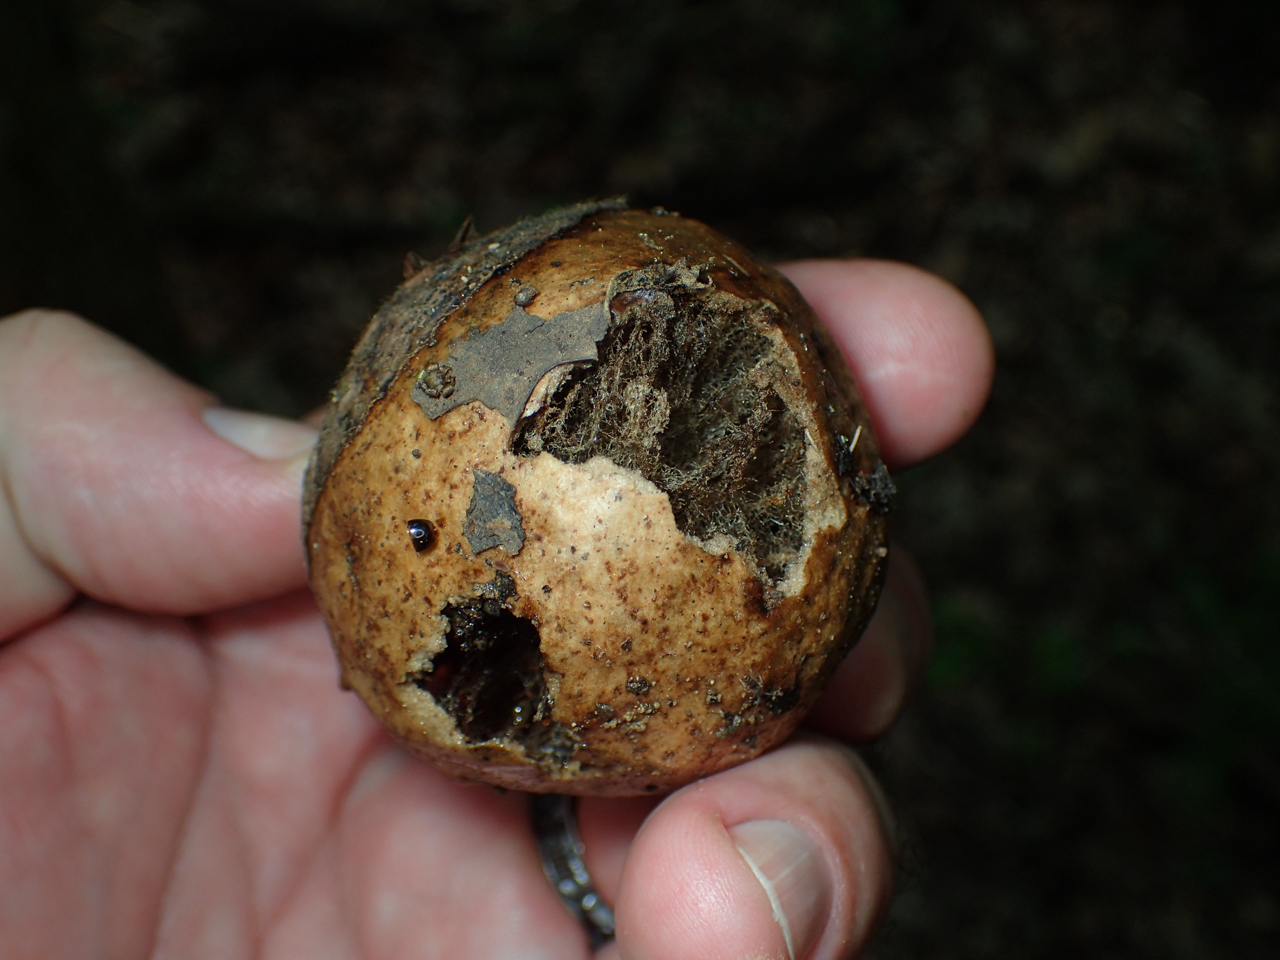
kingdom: Animalia
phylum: Arthropoda
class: Insecta
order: Hymenoptera
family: Cynipidae
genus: Amphibolips
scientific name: Amphibolips
